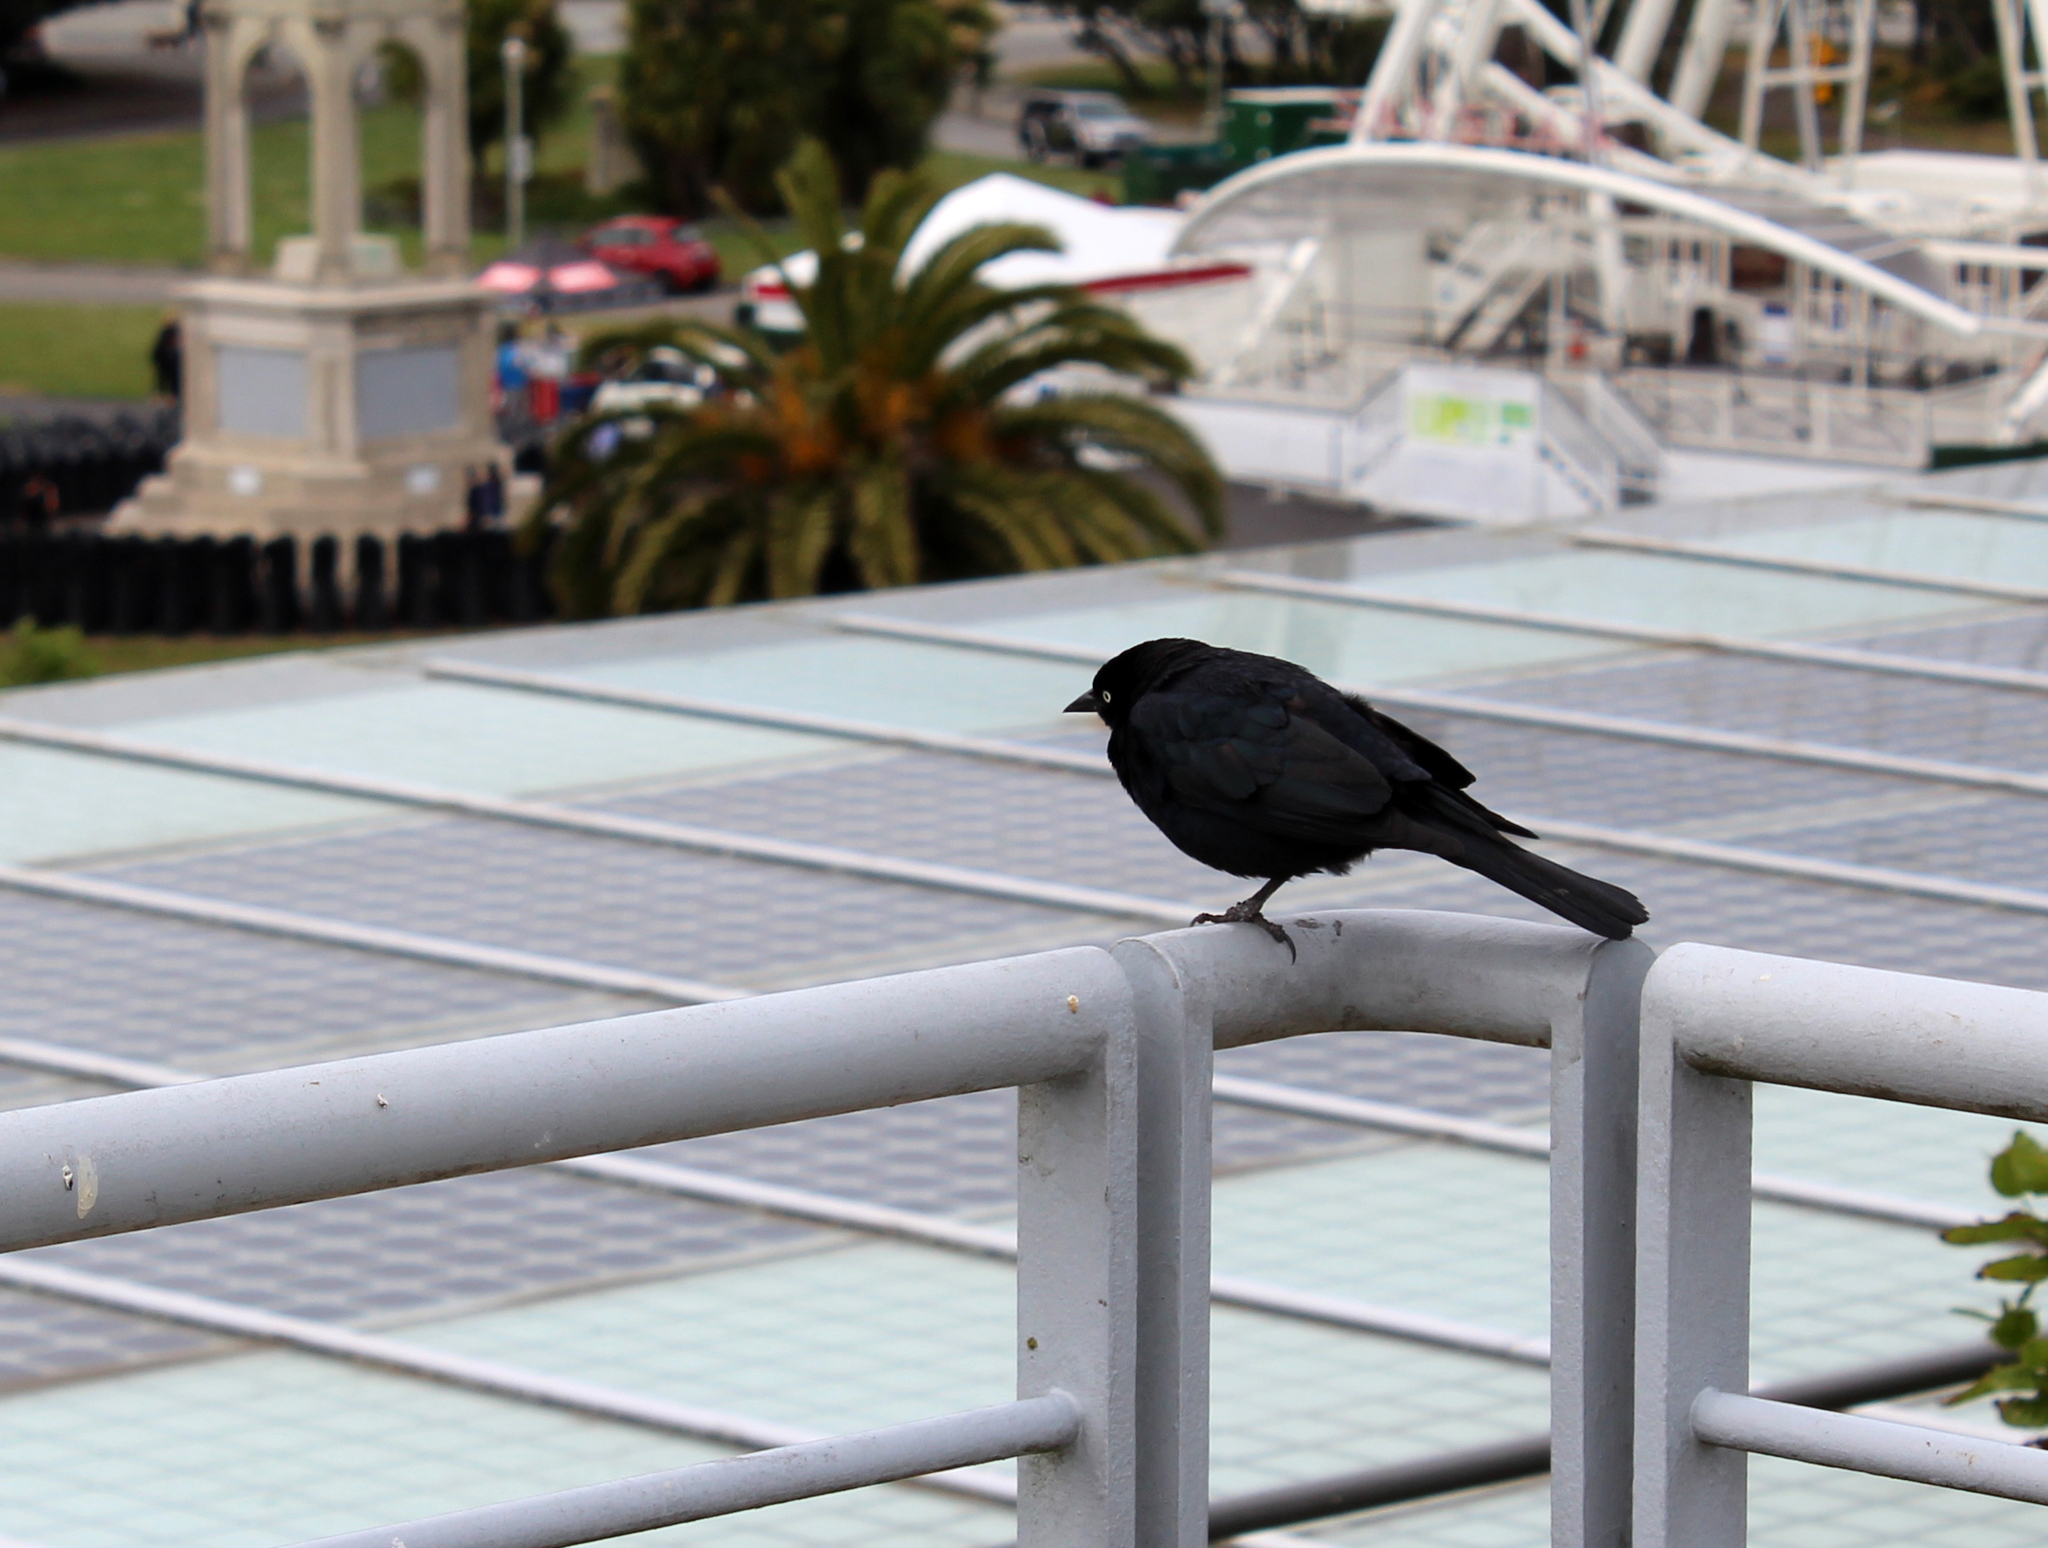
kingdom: Animalia
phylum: Chordata
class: Aves
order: Passeriformes
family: Icteridae
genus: Euphagus
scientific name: Euphagus cyanocephalus
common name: Brewer's blackbird
